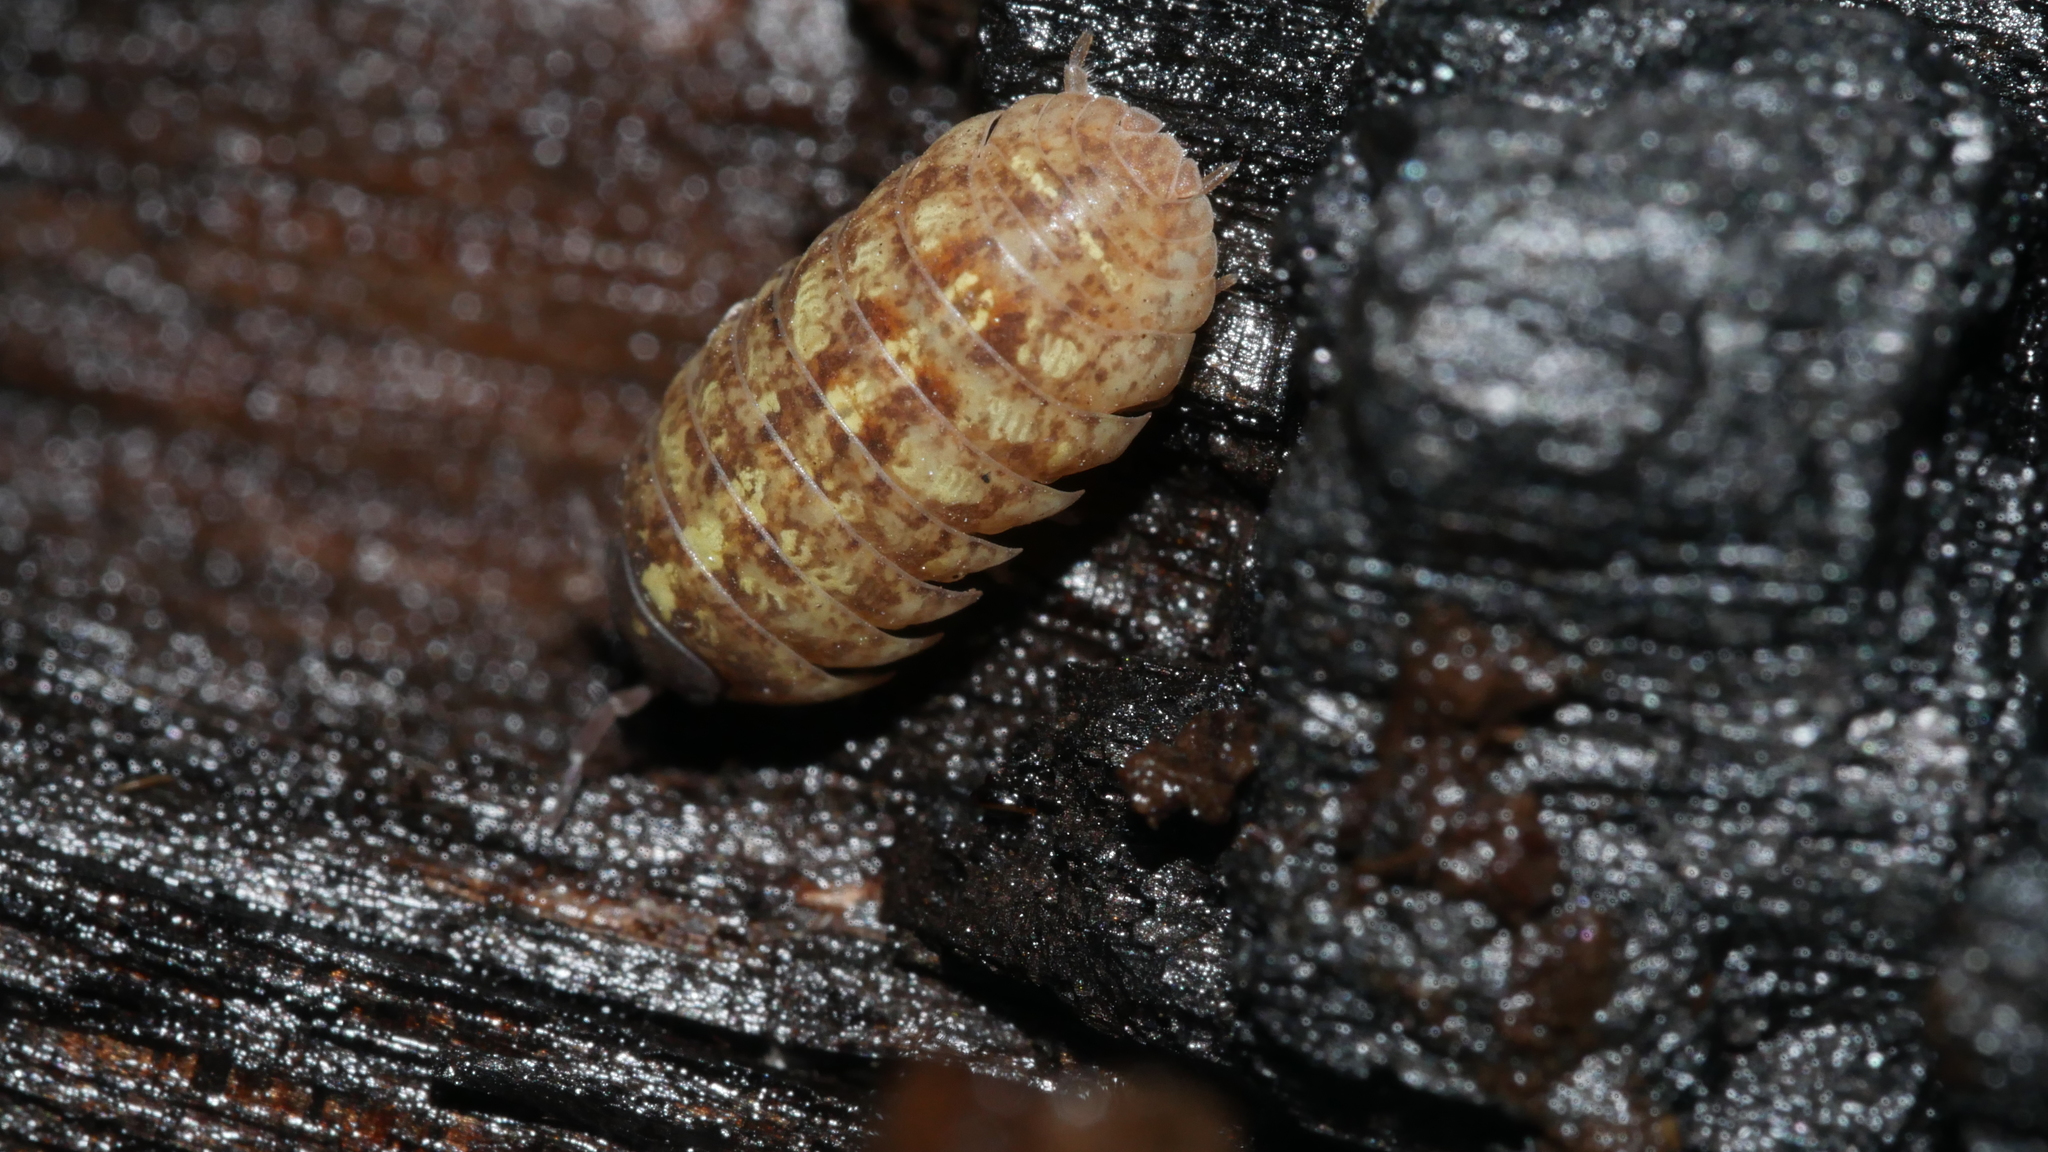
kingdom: Animalia
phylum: Arthropoda
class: Malacostraca
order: Isopoda
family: Armadillidiidae
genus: Armadillidium
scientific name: Armadillidium vulgare
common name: Common pill woodlouse
